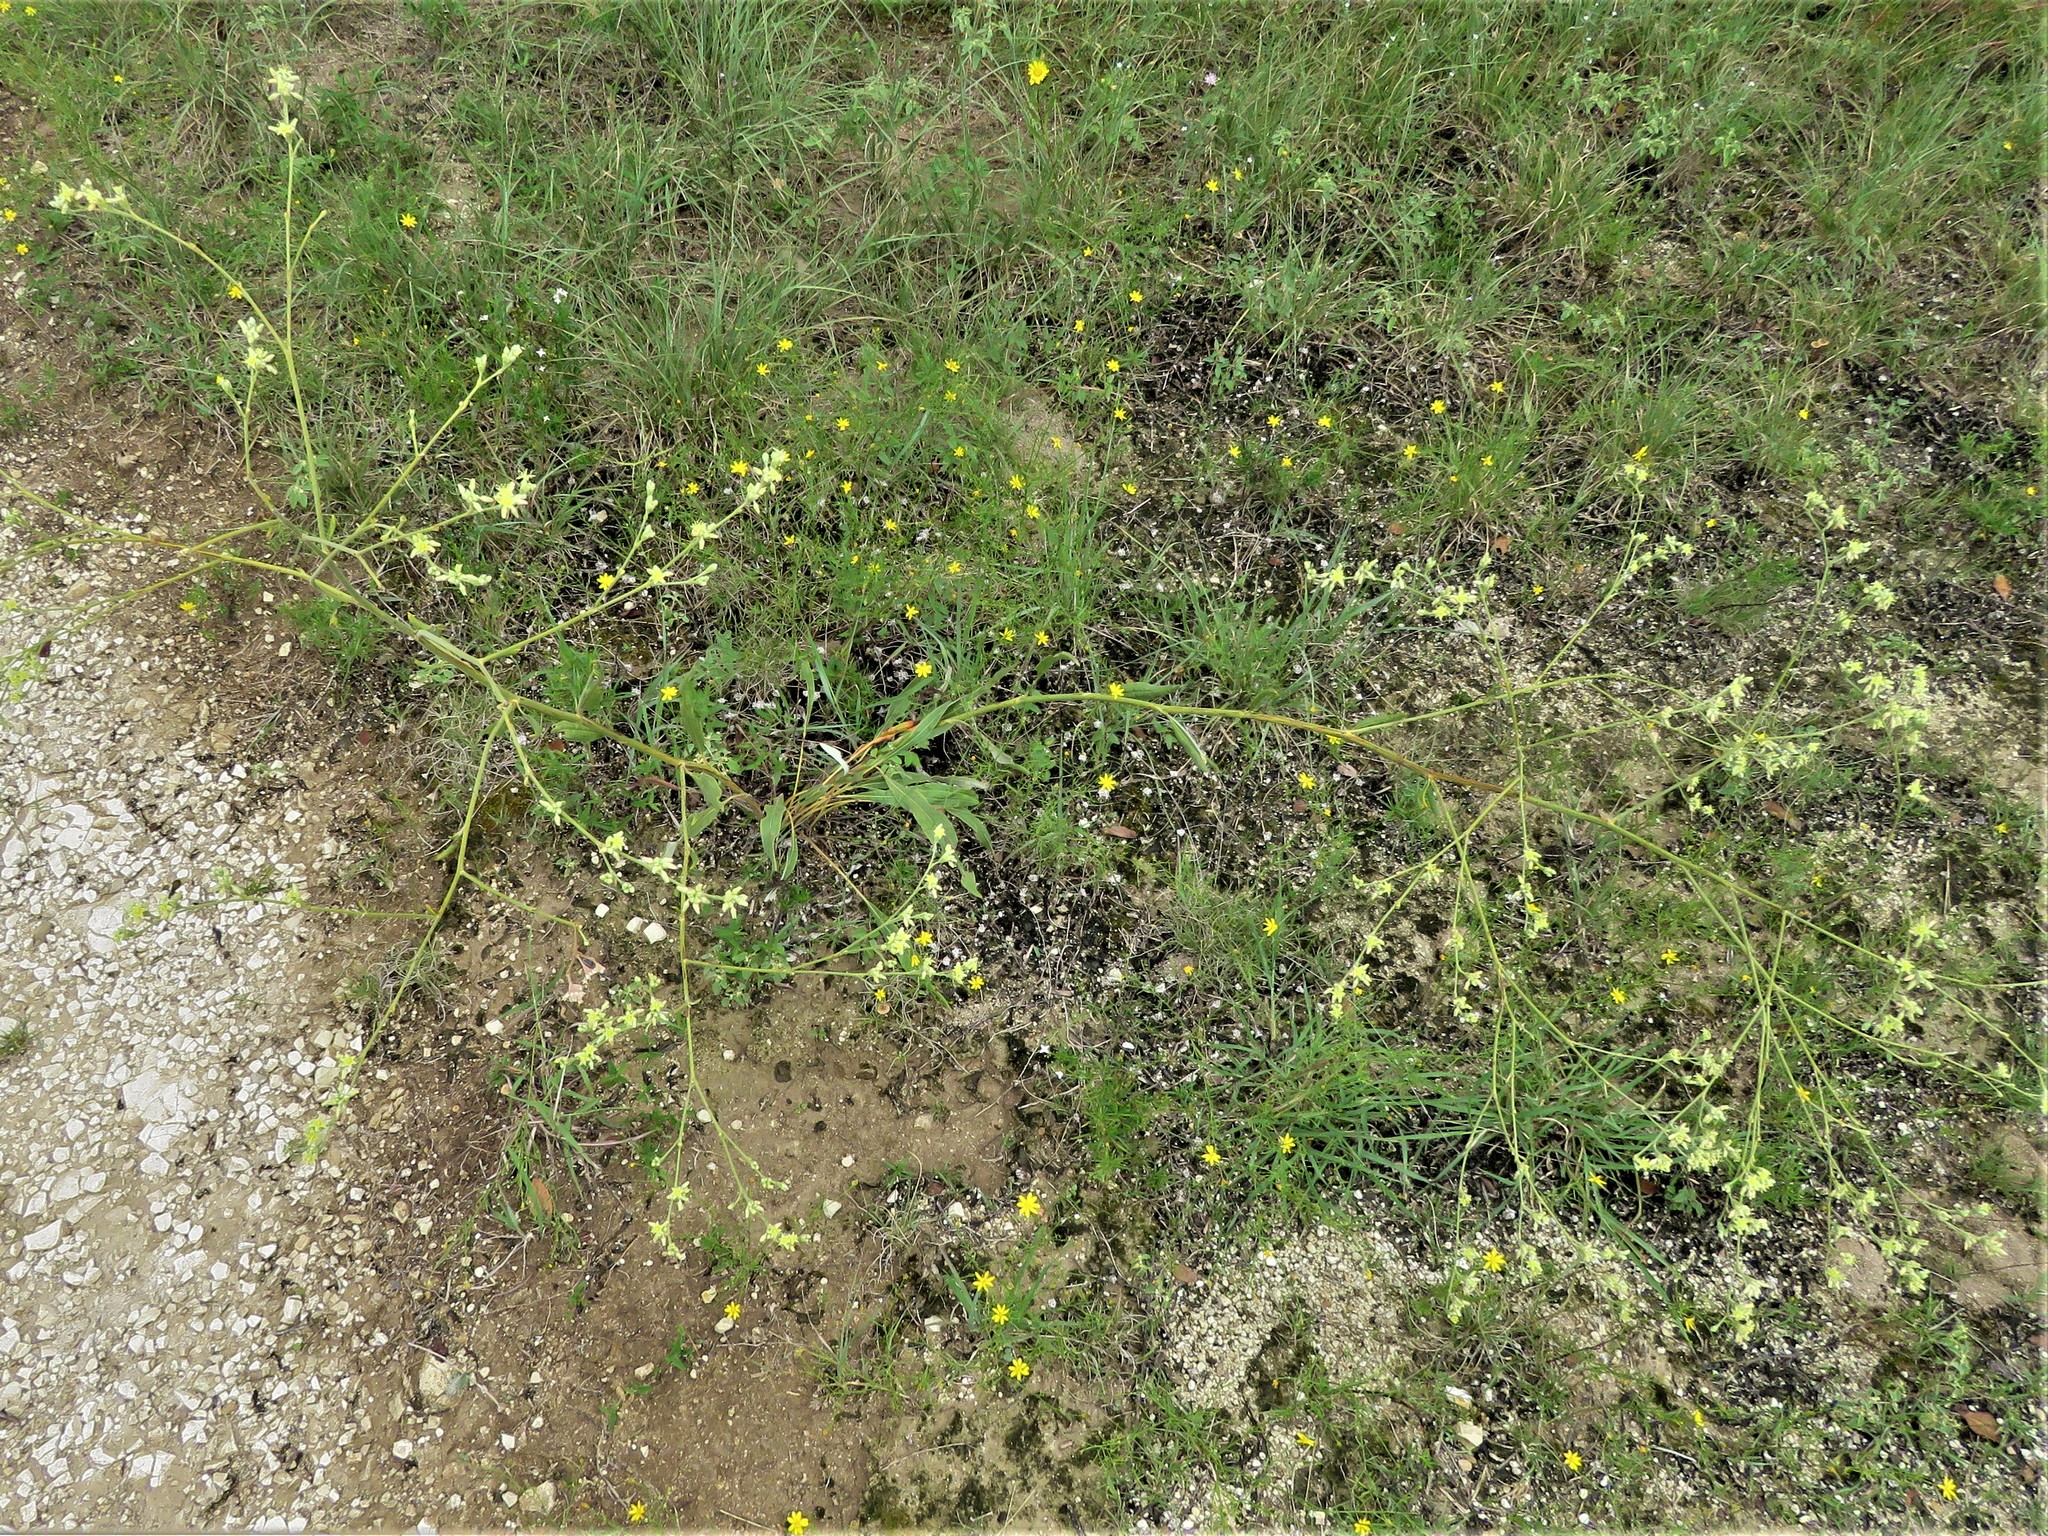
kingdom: Plantae
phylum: Tracheophyta
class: Magnoliopsida
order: Caryophyllales
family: Polygonaceae
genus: Eriogonum
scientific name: Eriogonum longifolium
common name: Longleaf wild buckwheat
